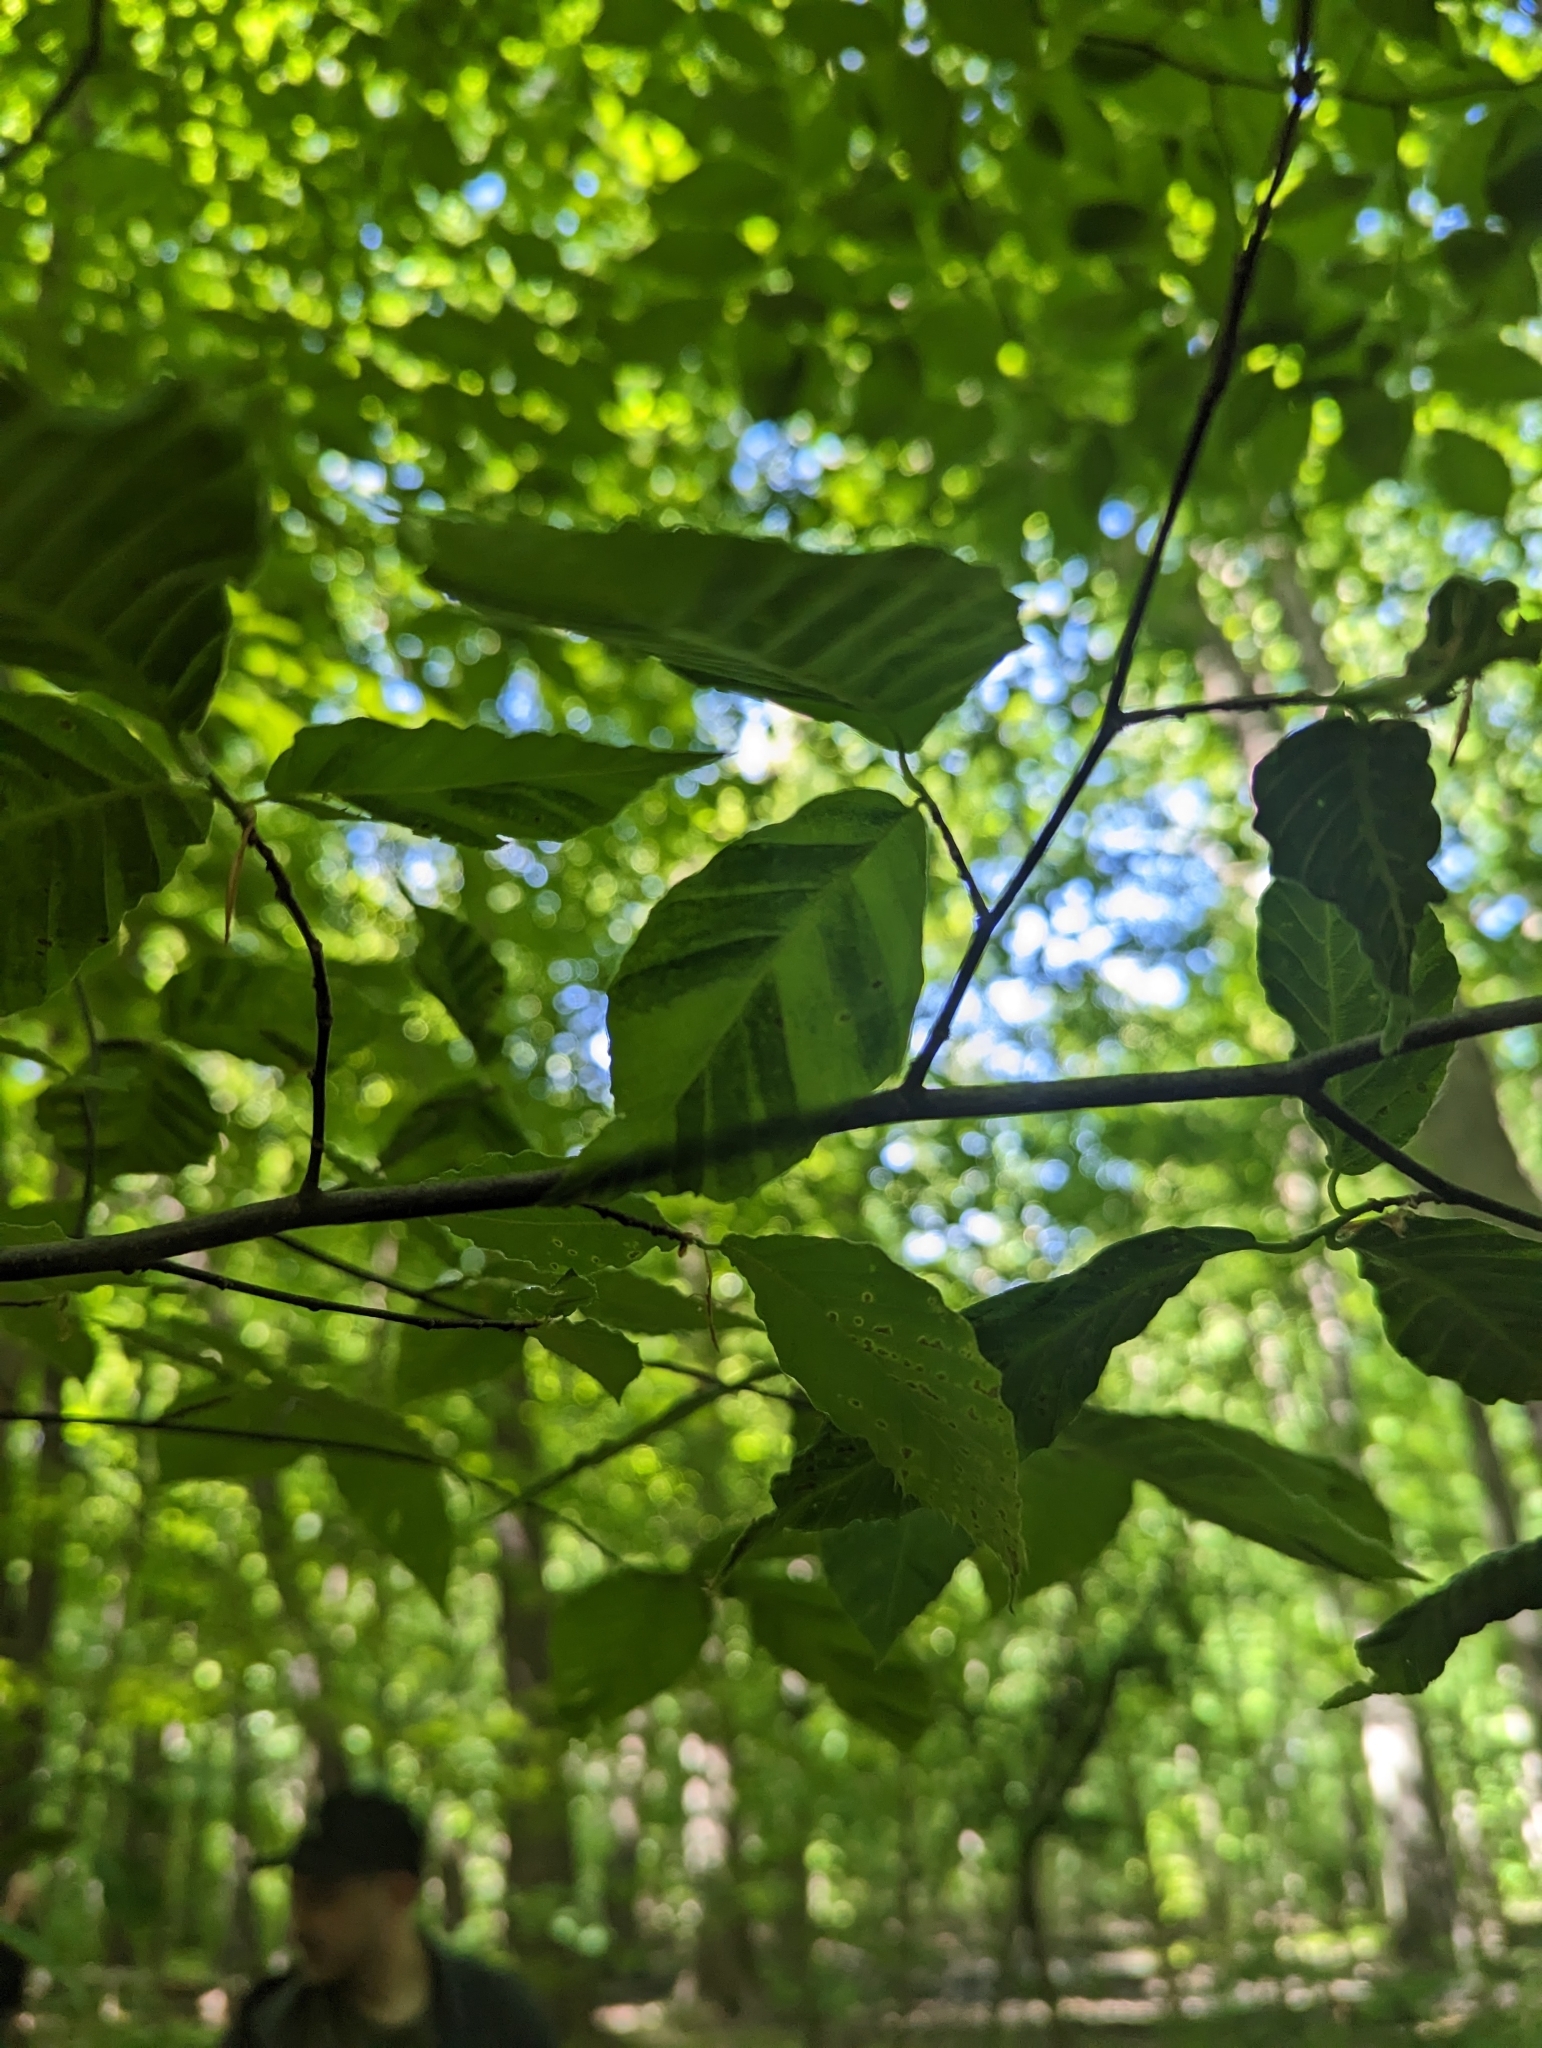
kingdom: Animalia
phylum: Nematoda
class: Chromadorea
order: Rhabditida
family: Anguinidae
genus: Litylenchus
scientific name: Litylenchus crenatae
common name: Beech leaf disease
